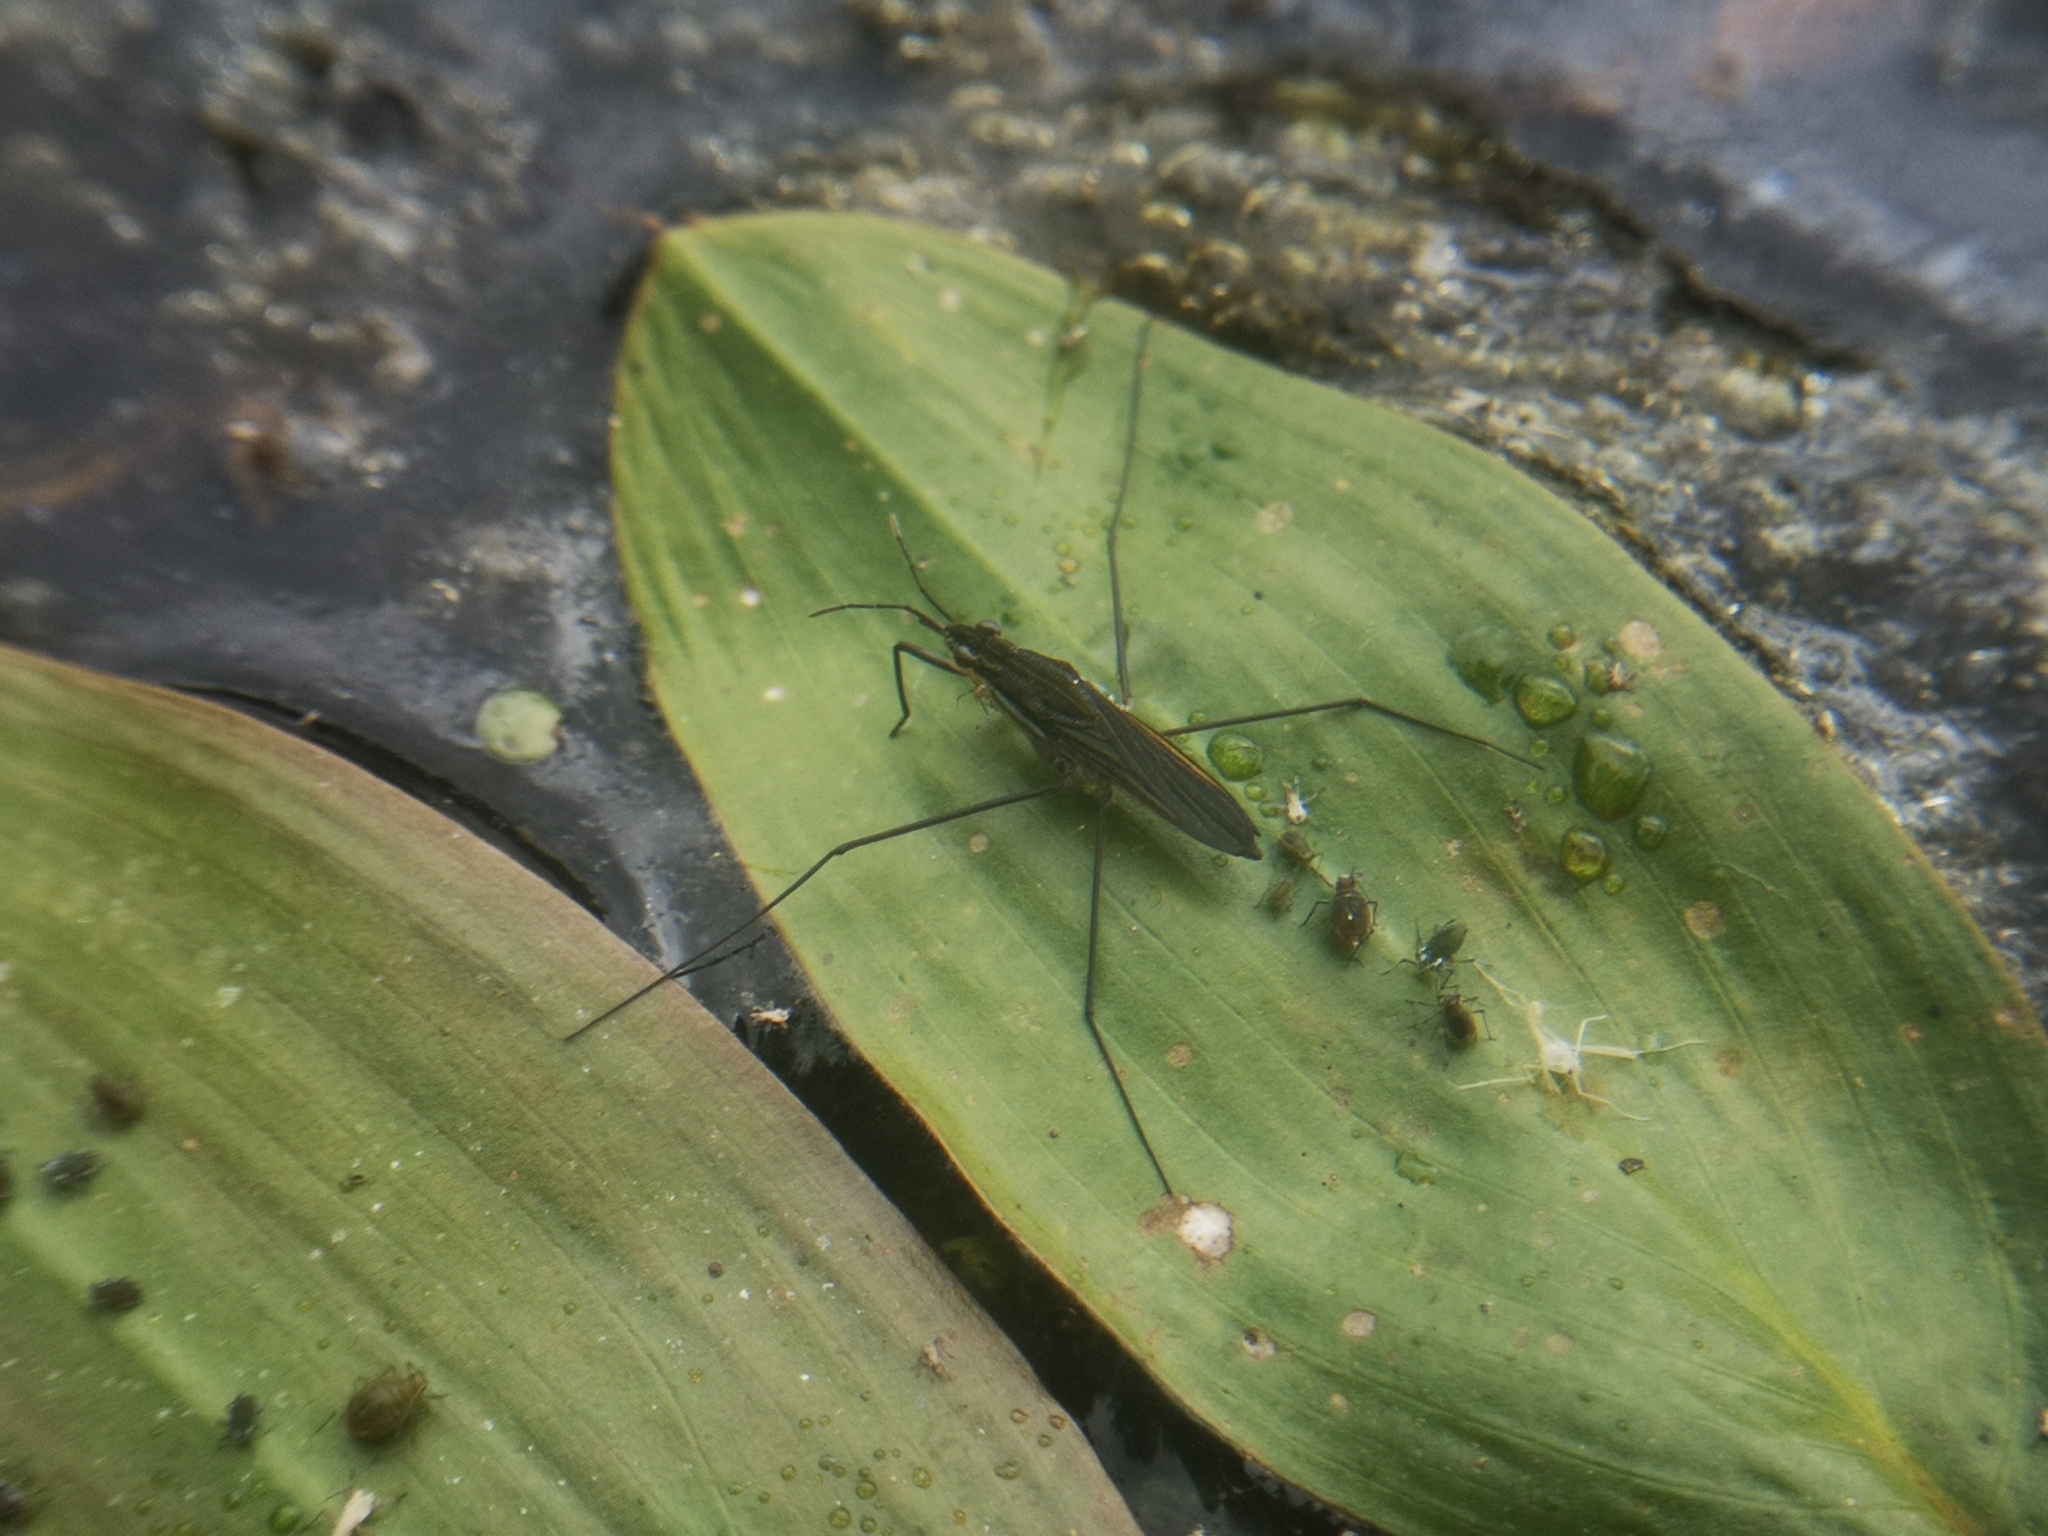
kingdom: Animalia
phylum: Arthropoda
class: Insecta
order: Hemiptera
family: Gerridae
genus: Gerris
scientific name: Gerris
